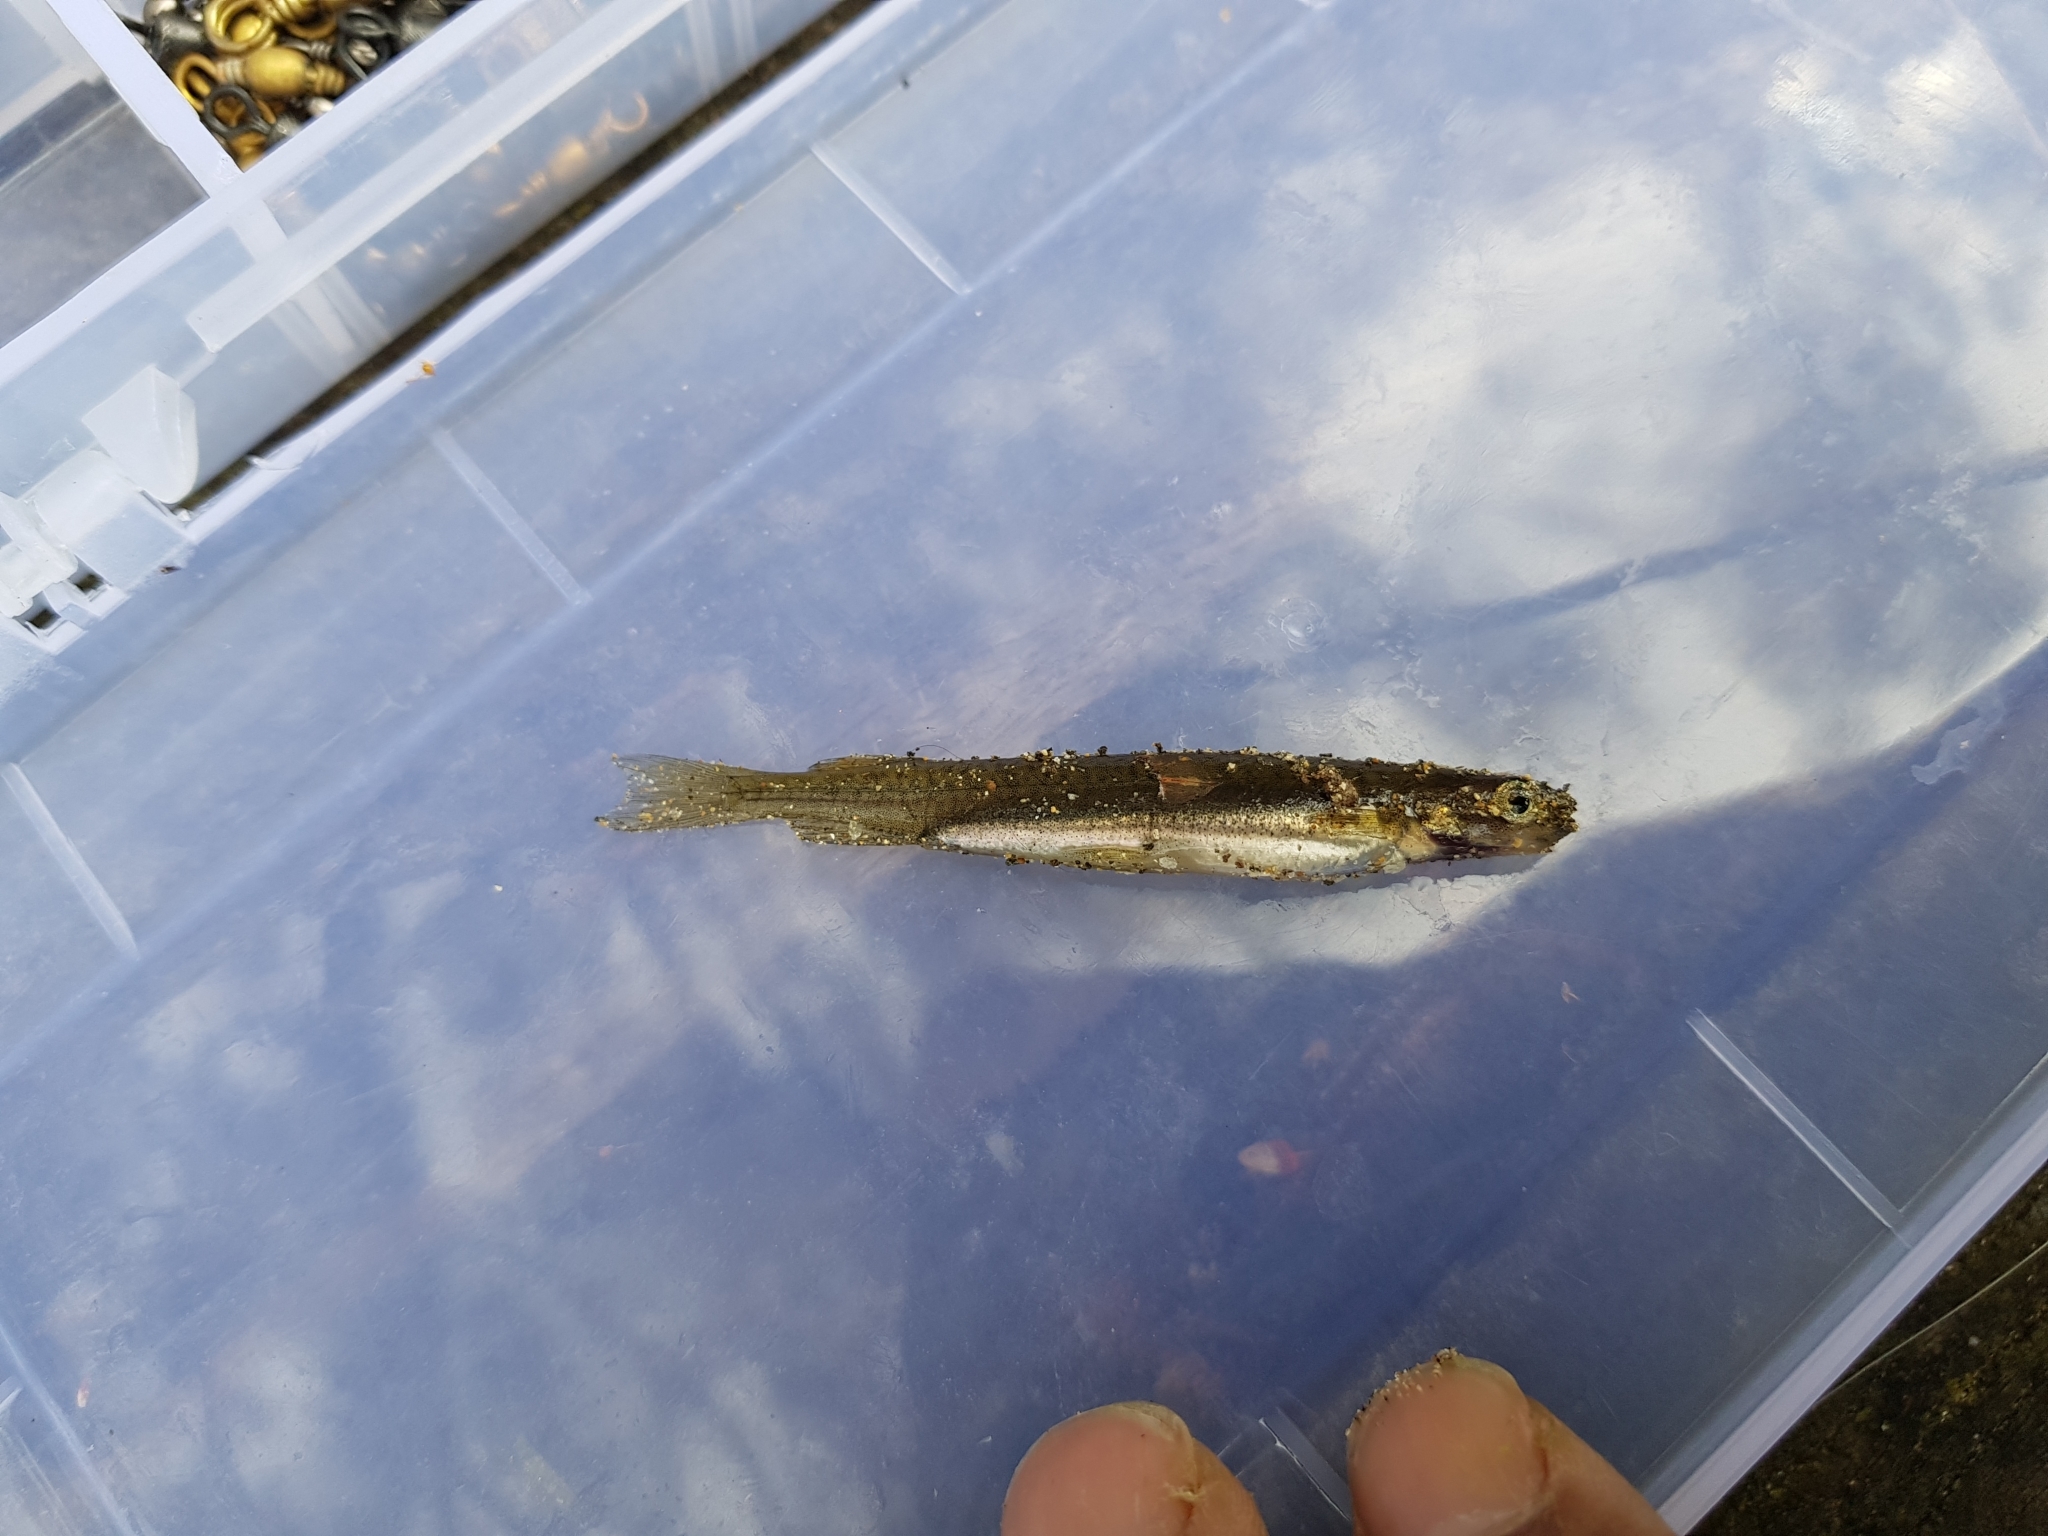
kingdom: Animalia
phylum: Chordata
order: Osmeriformes
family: Galaxiidae
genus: Galaxias
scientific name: Galaxias maculatus
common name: Common galaxias
